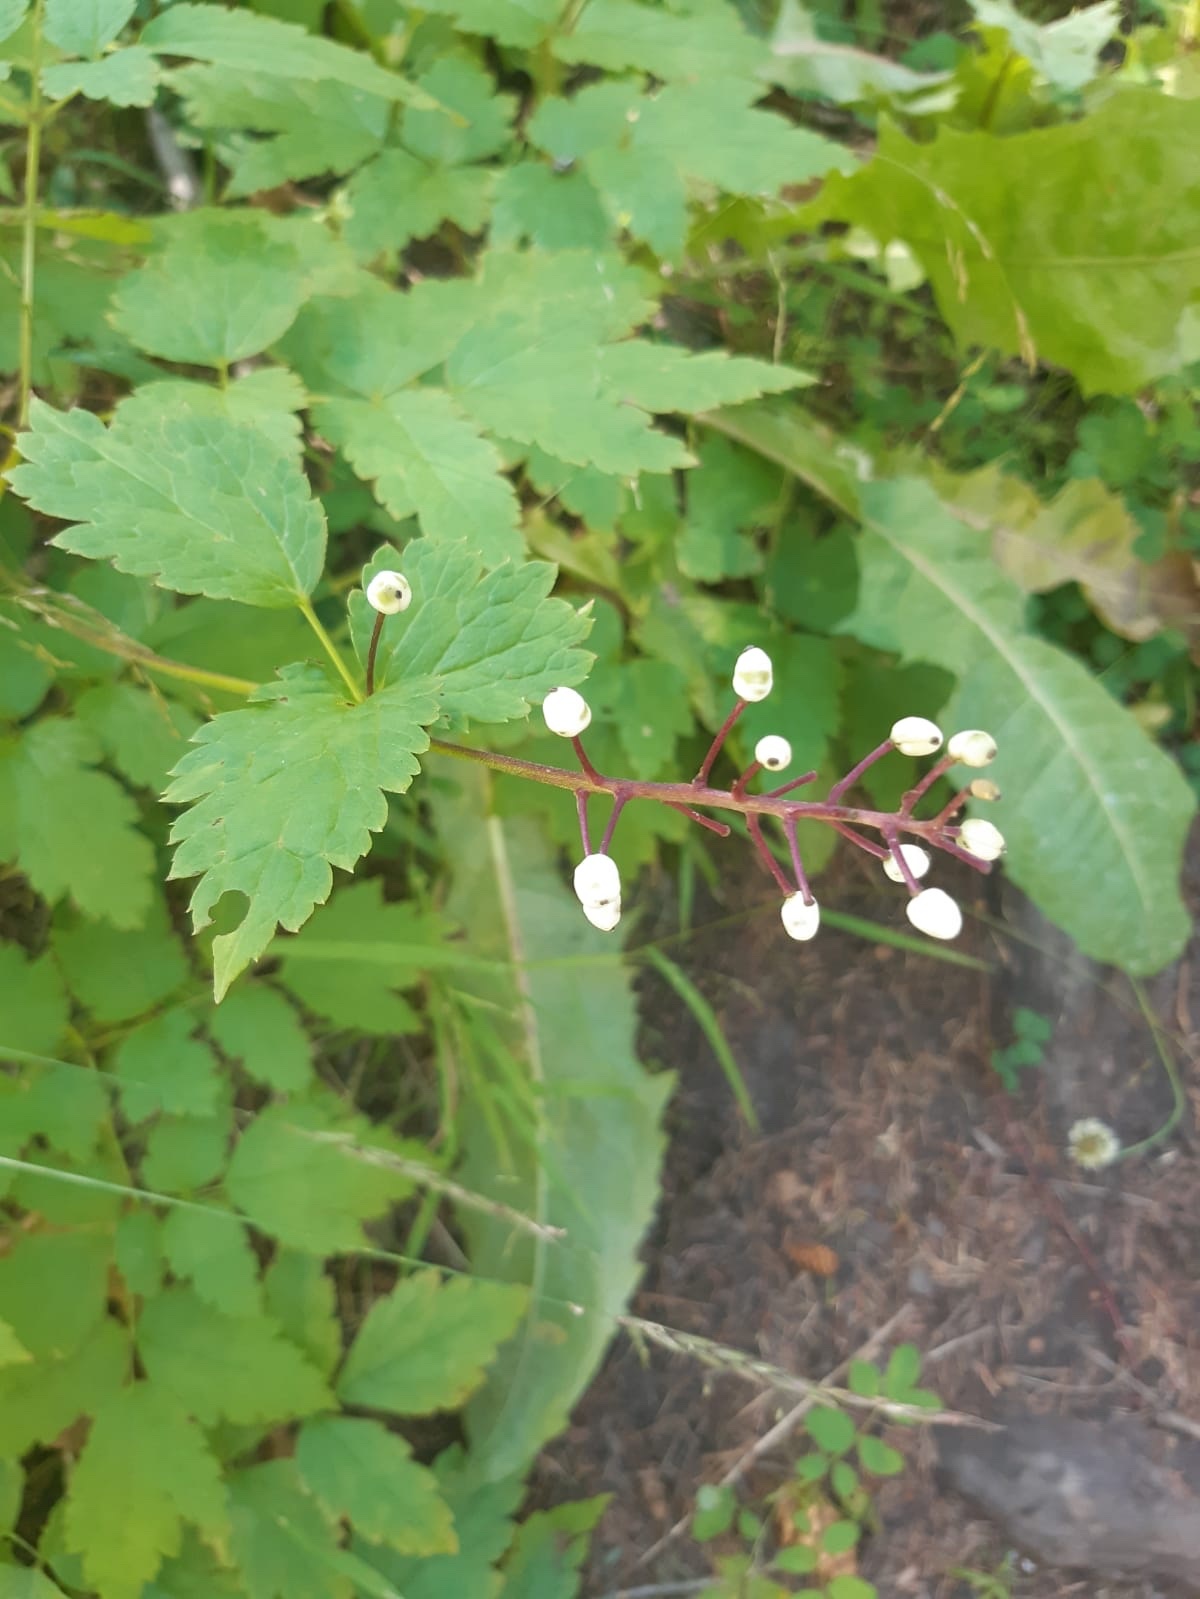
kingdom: Plantae
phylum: Tracheophyta
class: Magnoliopsida
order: Ranunculales
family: Ranunculaceae
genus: Actaea
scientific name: Actaea rubra
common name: Red baneberry
